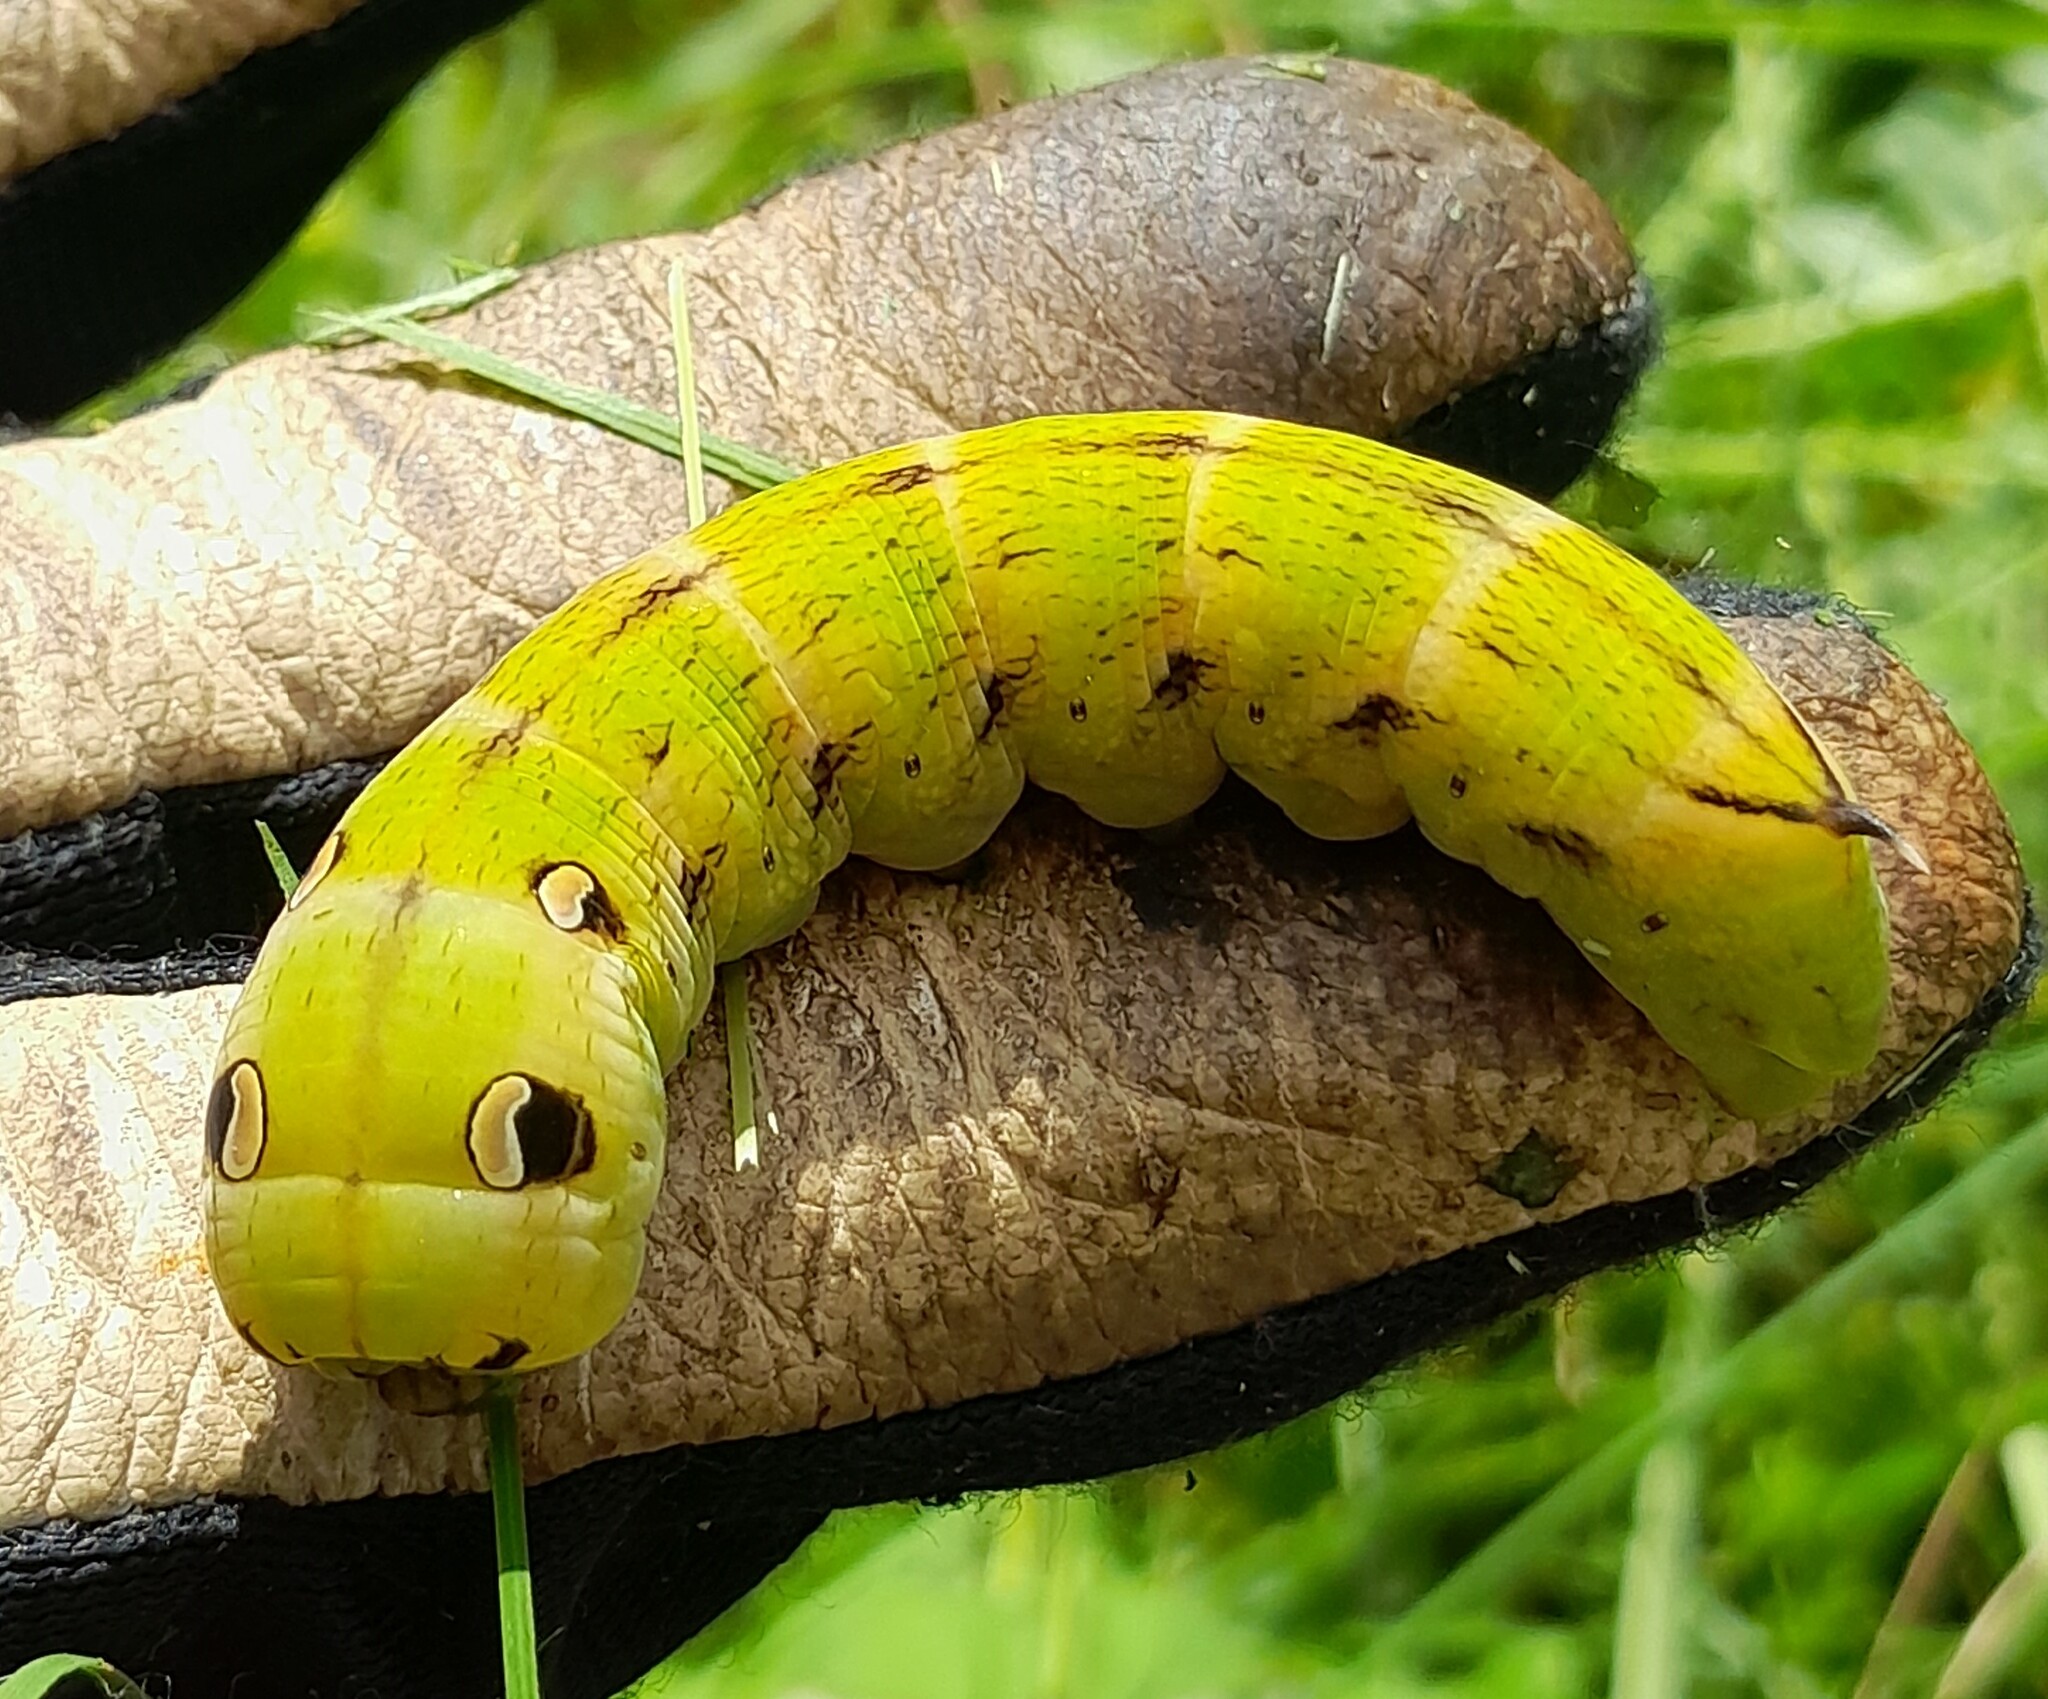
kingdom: Animalia
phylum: Arthropoda
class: Insecta
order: Lepidoptera
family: Sphingidae
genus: Deilephila
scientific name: Deilephila elpenor
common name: Elephant hawk-moth
